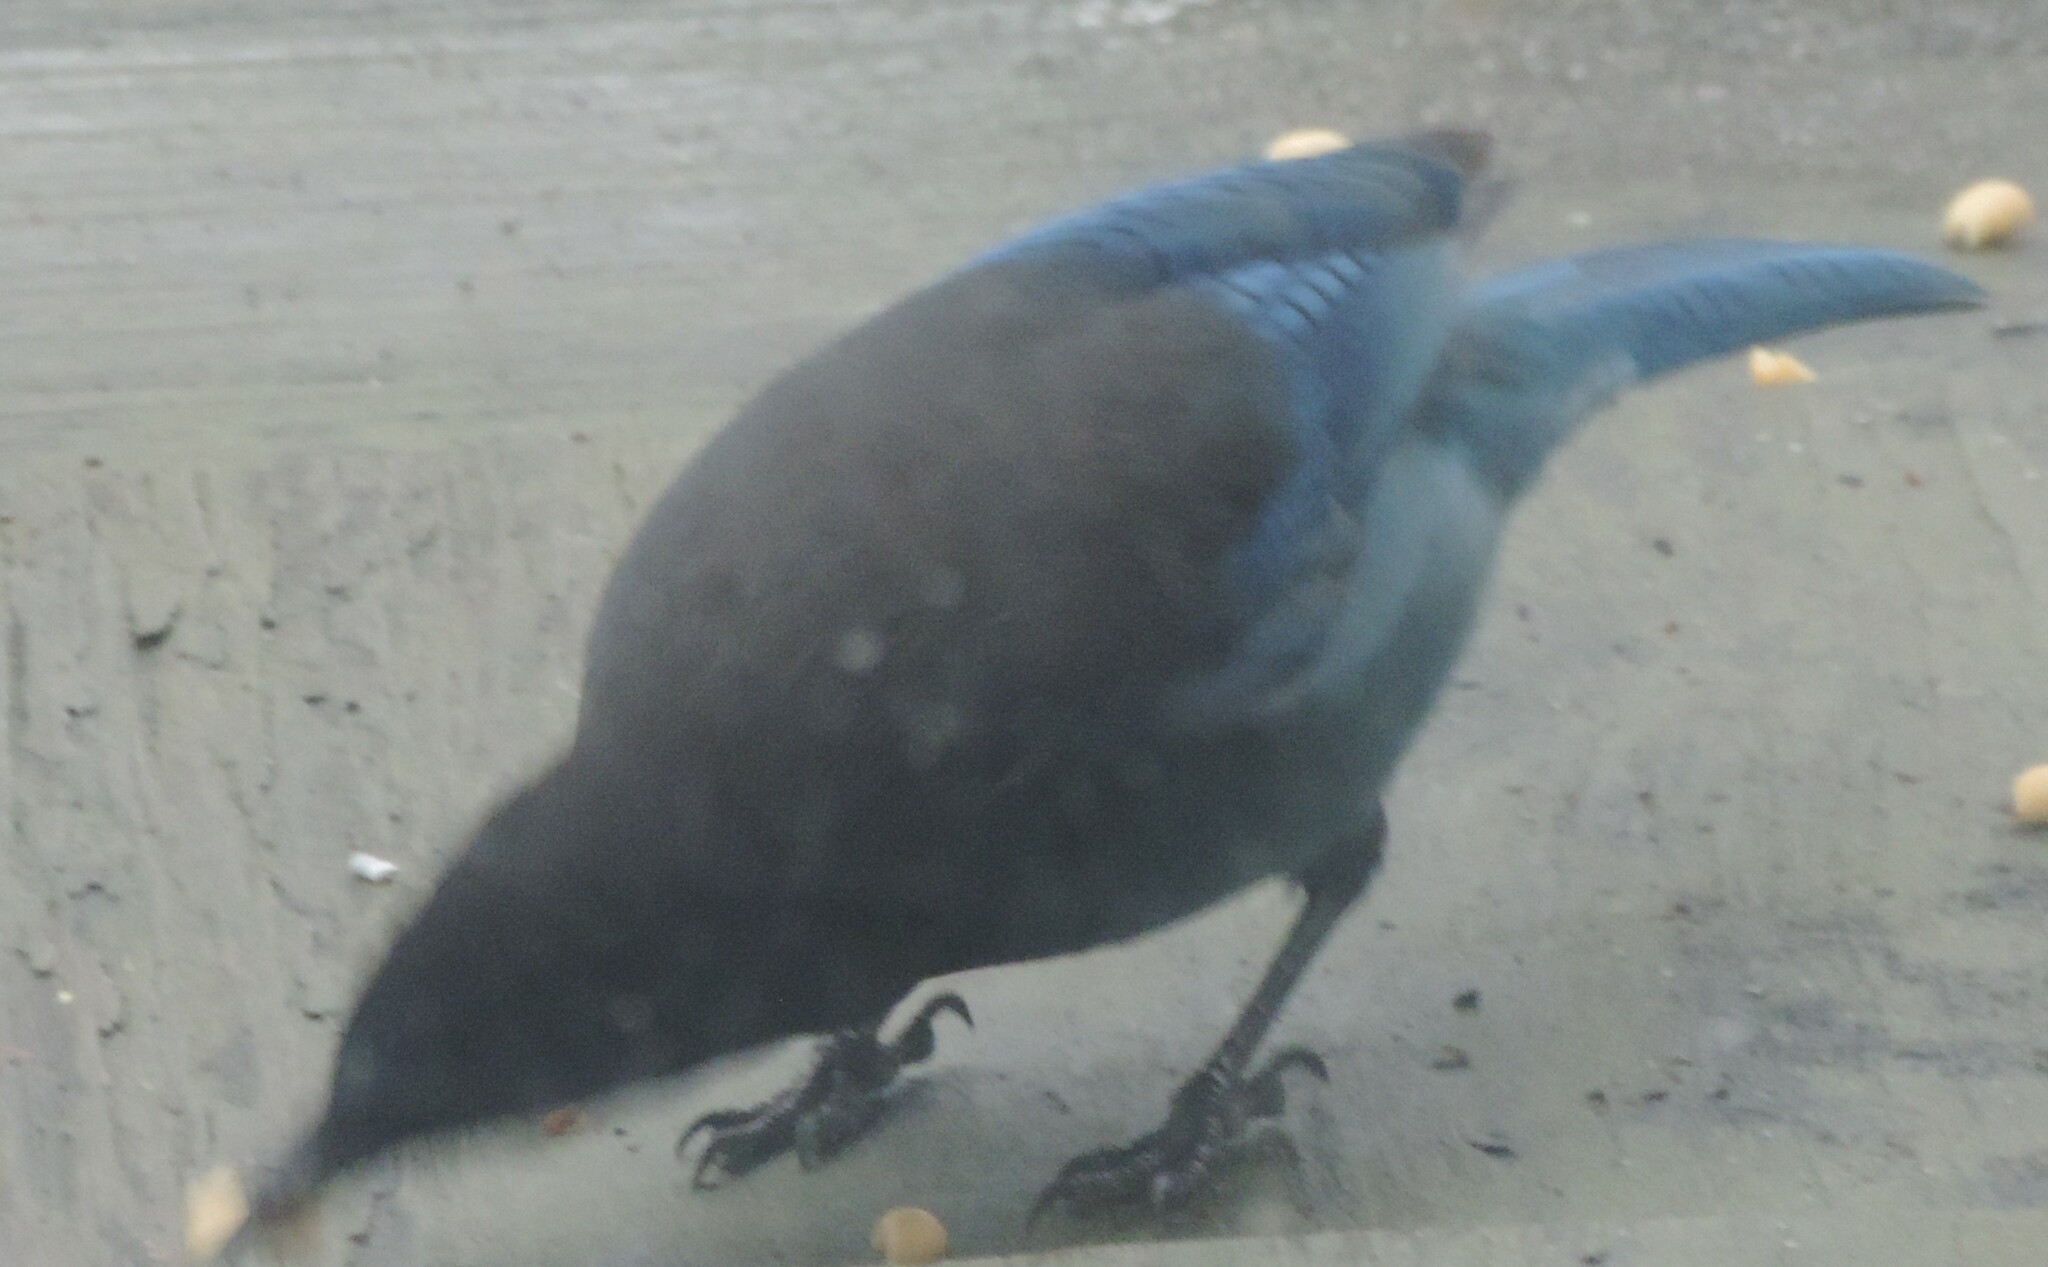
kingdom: Animalia
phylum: Chordata
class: Aves
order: Passeriformes
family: Corvidae
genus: Cyanocitta
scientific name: Cyanocitta stelleri
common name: Steller's jay
